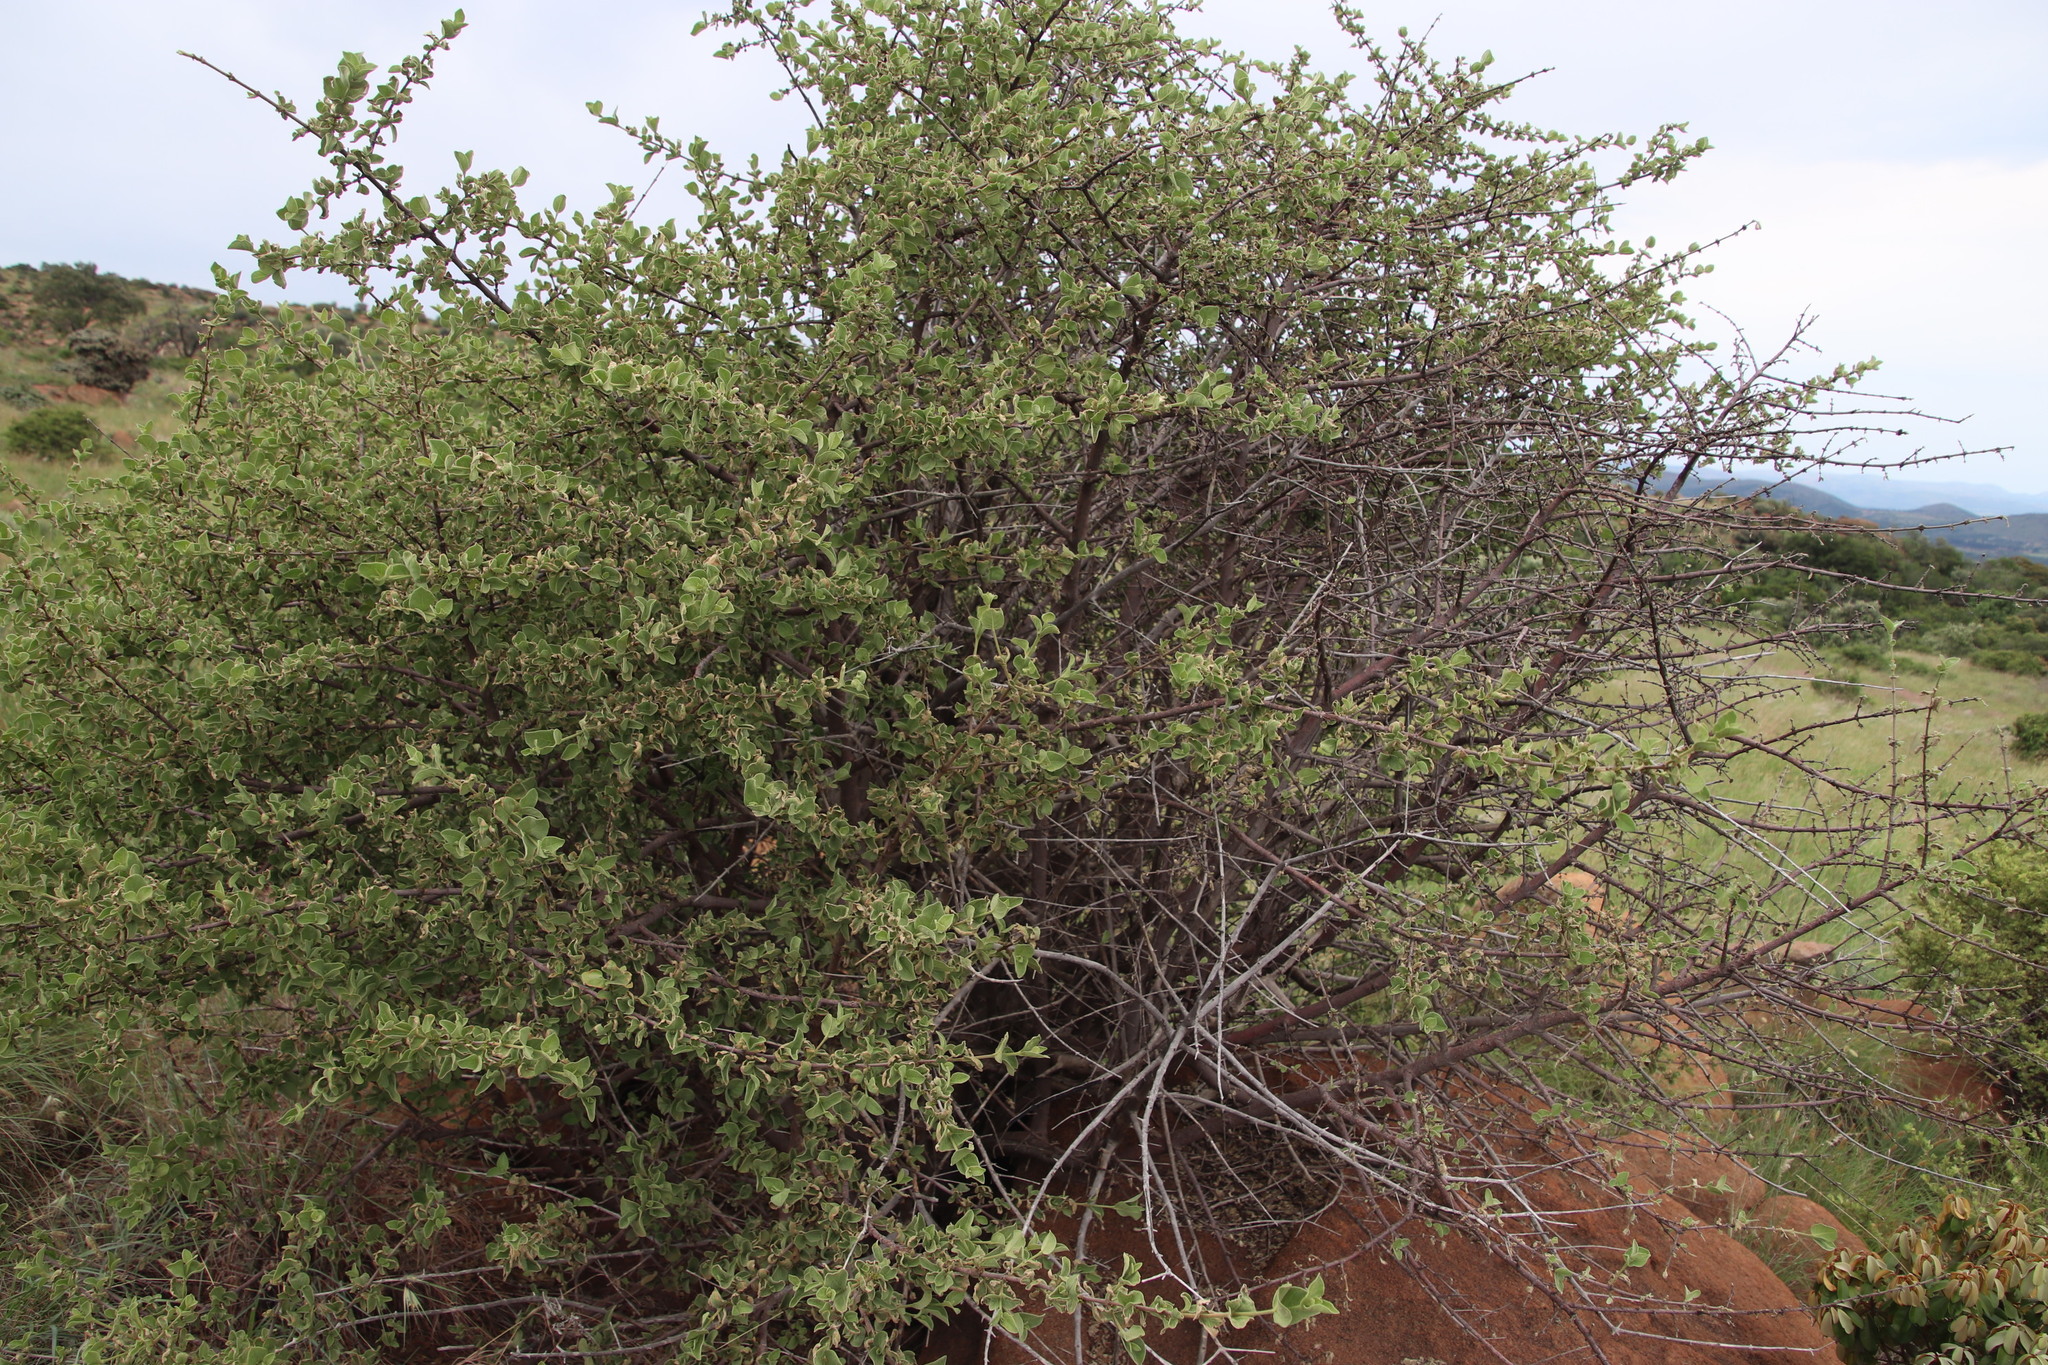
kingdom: Plantae
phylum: Tracheophyta
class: Magnoliopsida
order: Gentianales
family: Rubiaceae
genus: Vangueria
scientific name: Vangueria parvifolia
